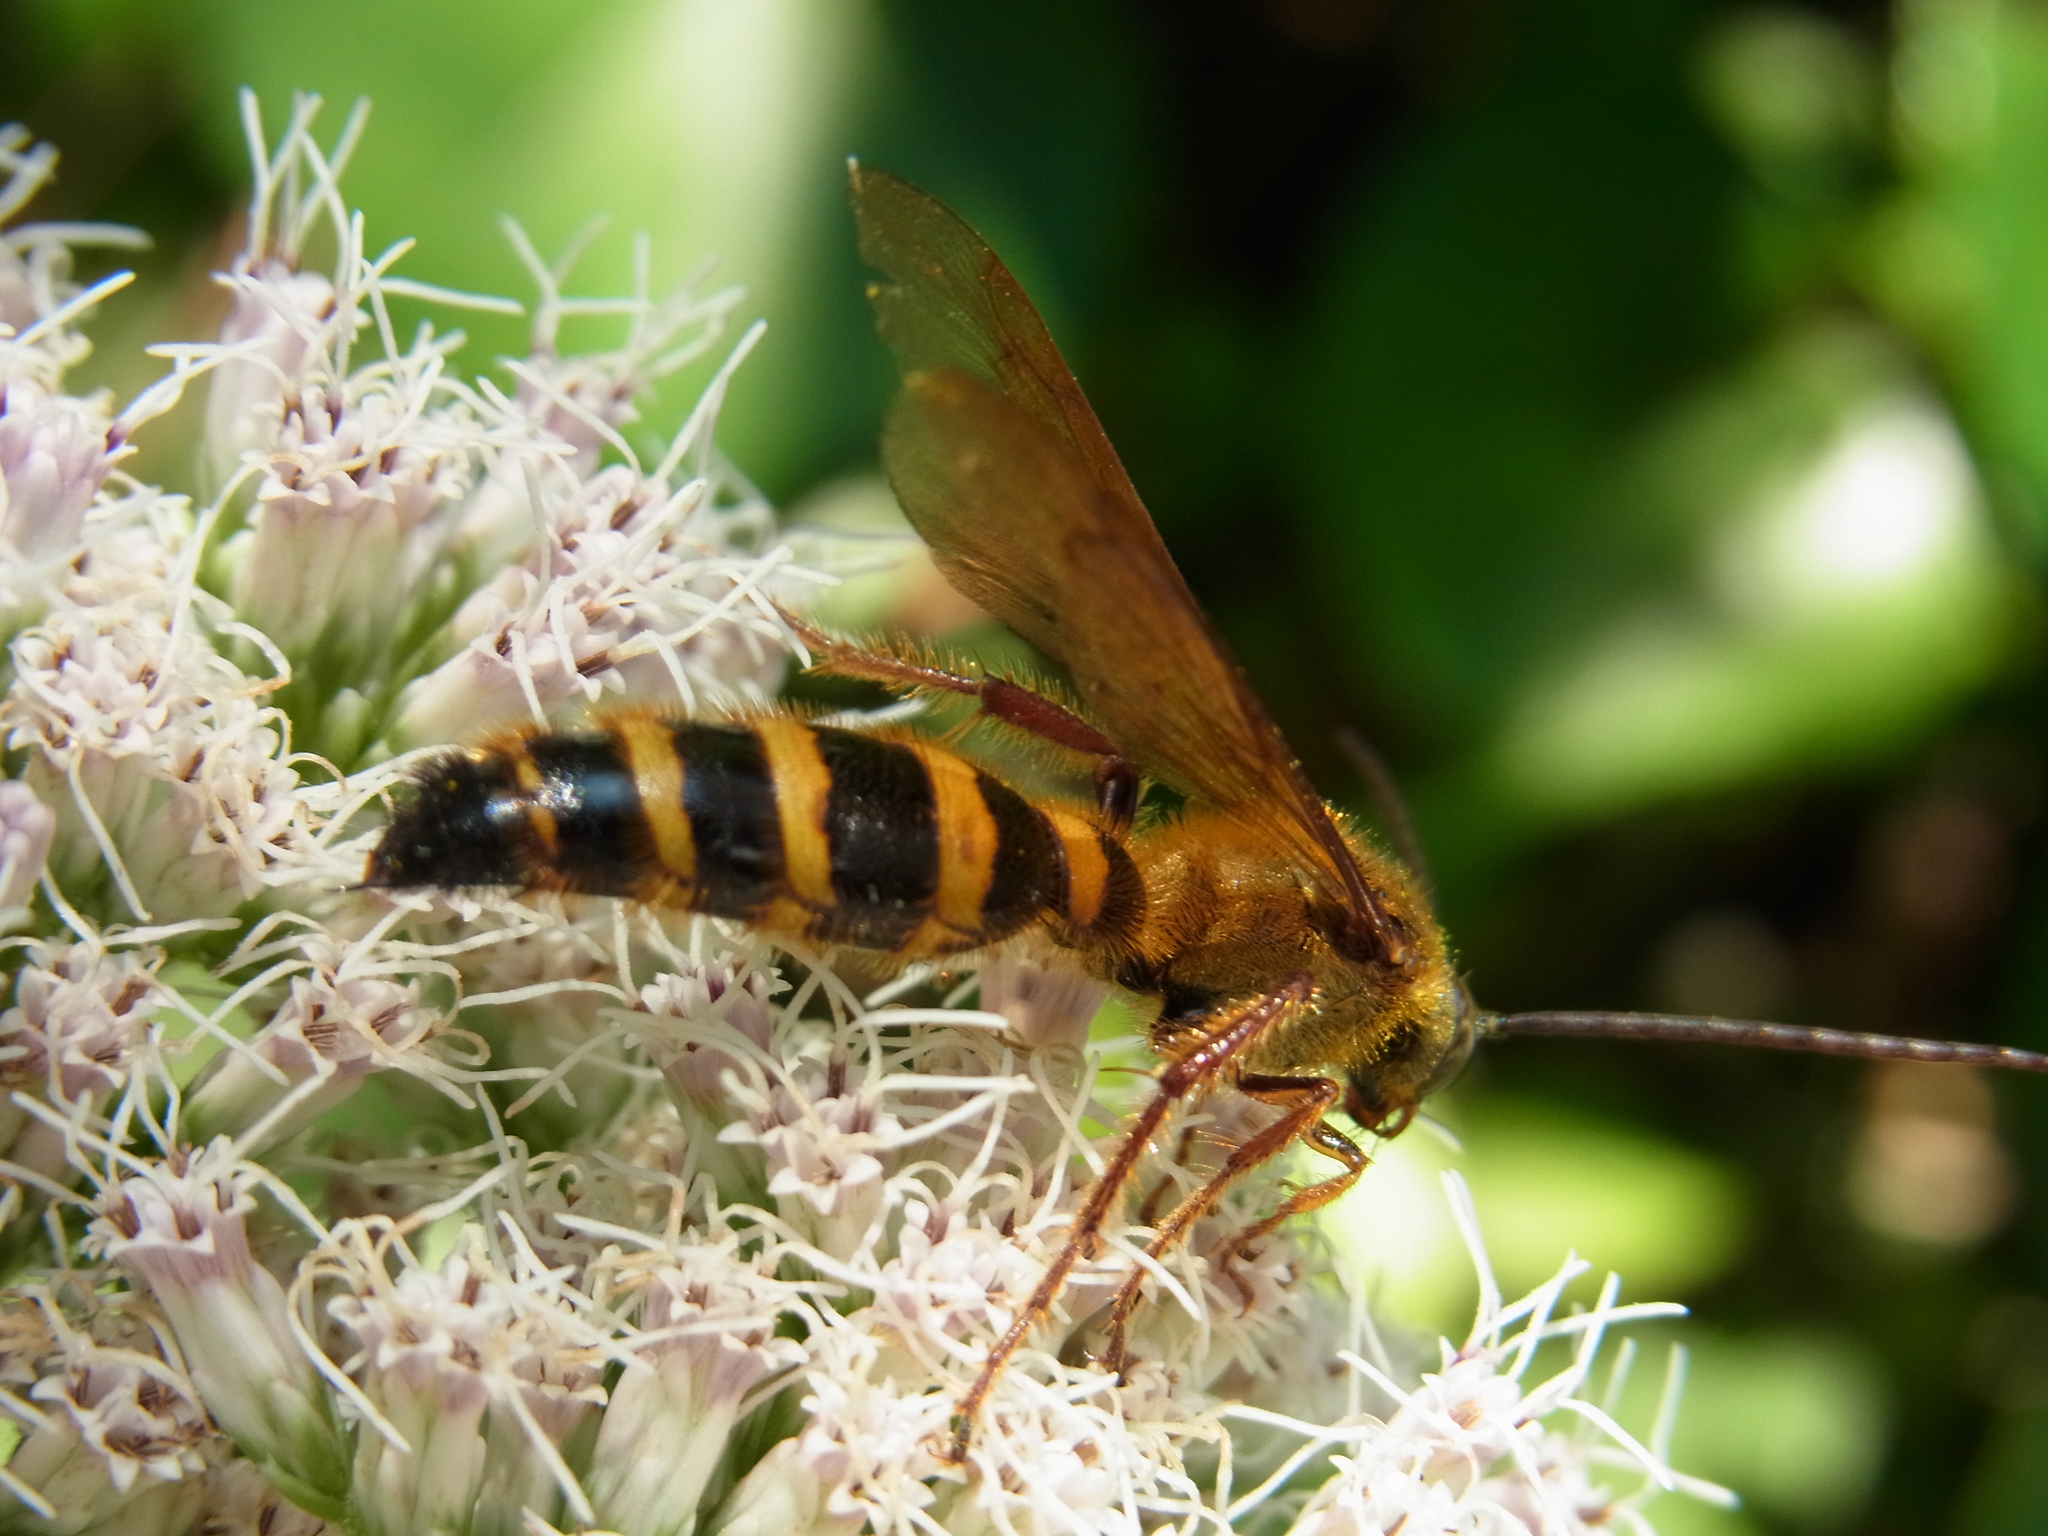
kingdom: Animalia
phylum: Arthropoda
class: Insecta
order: Hymenoptera
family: Scoliidae
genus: Megacampsomeris
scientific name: Megacampsomeris
